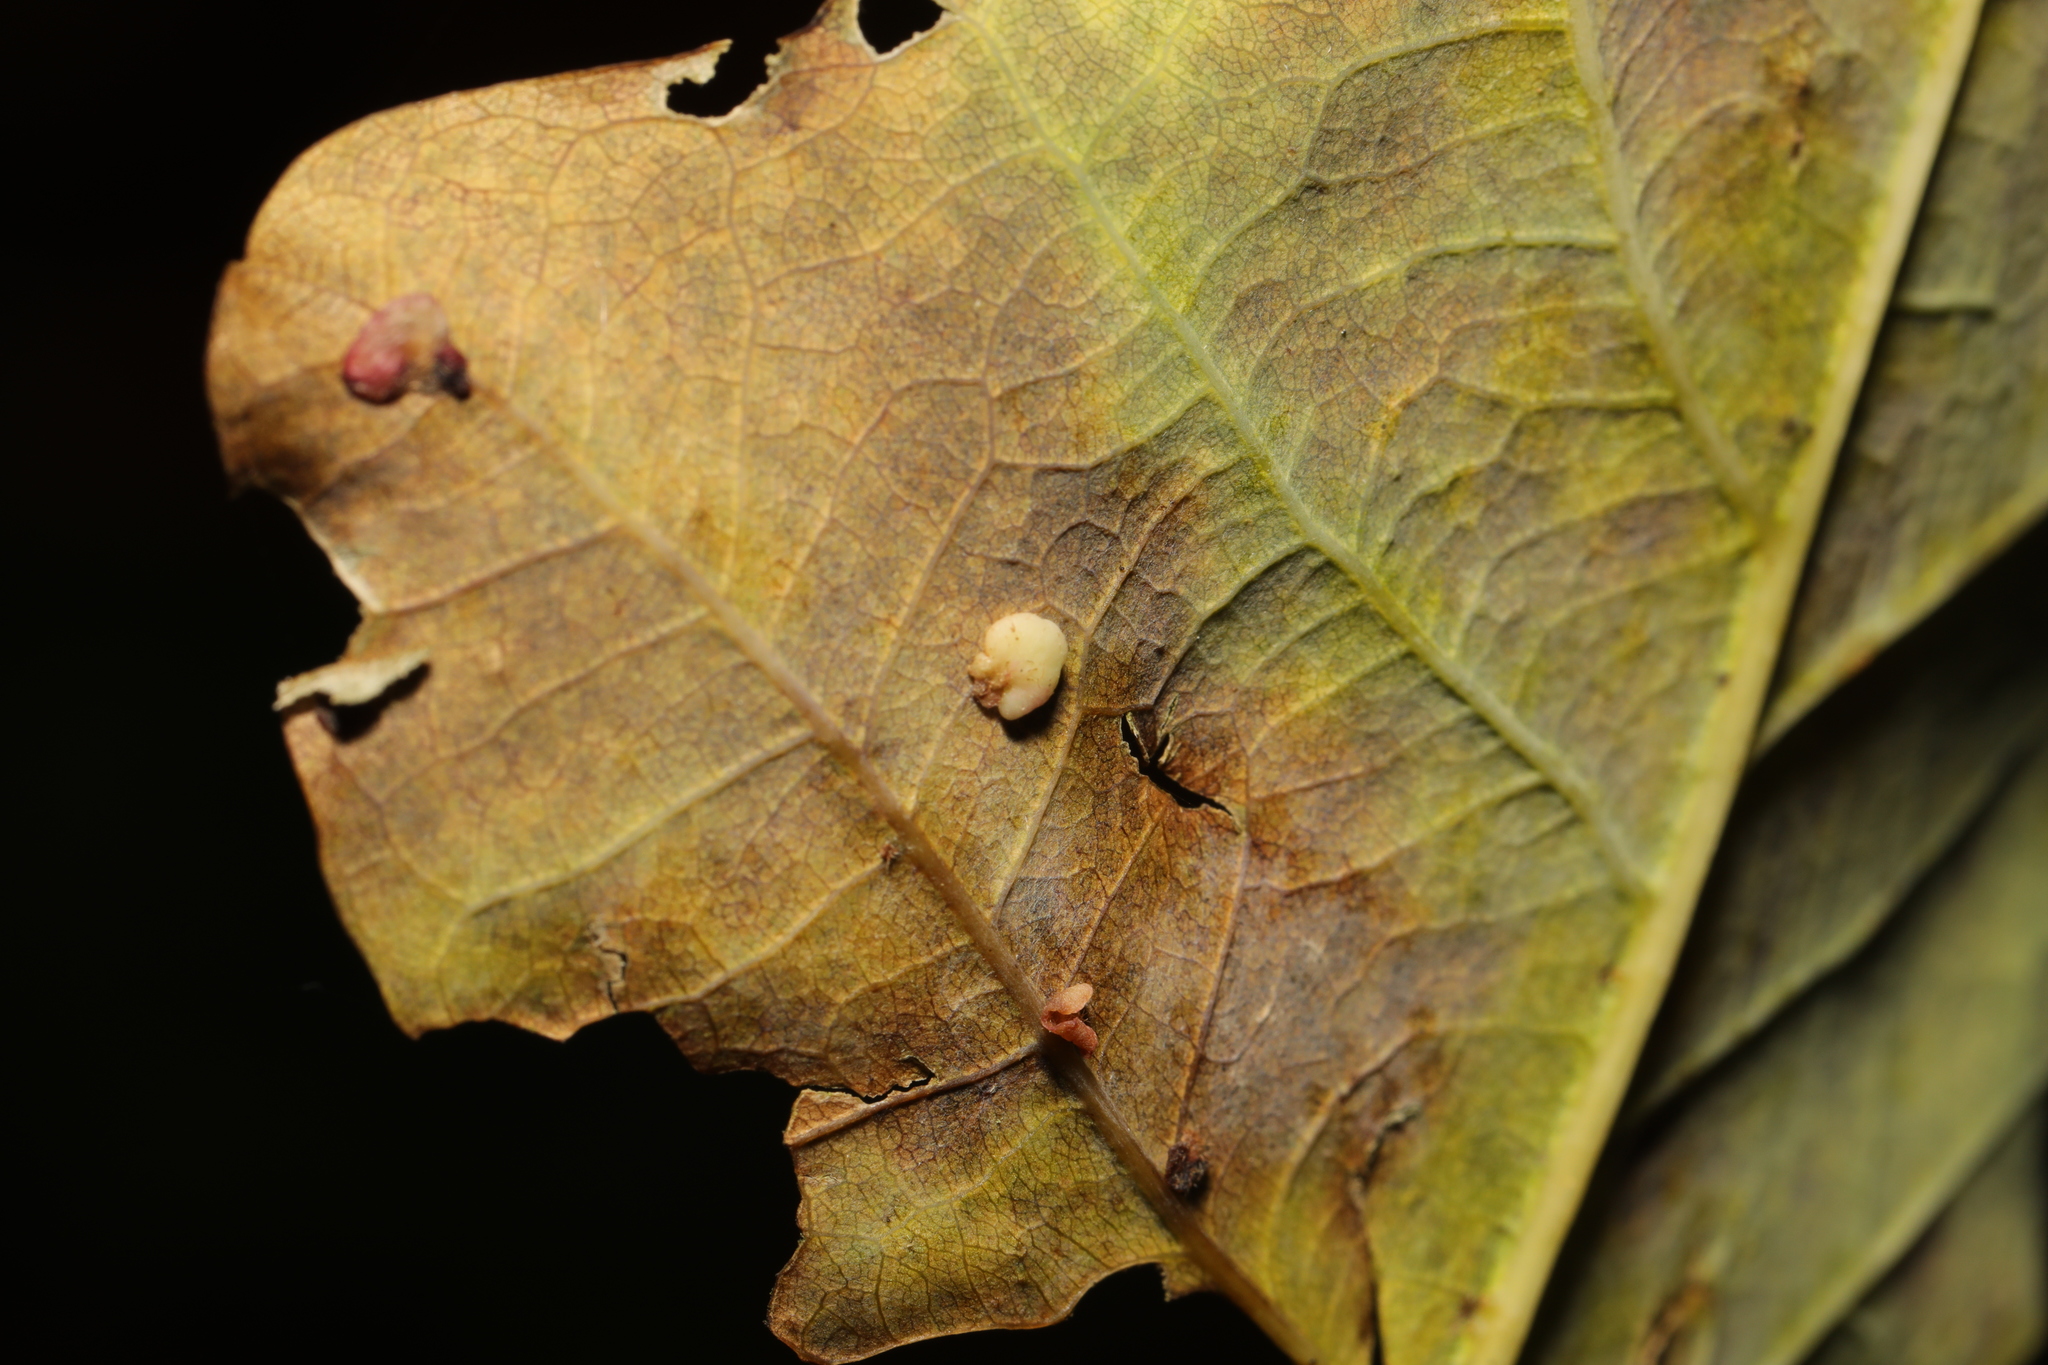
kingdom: Animalia
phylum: Arthropoda
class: Insecta
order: Hymenoptera
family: Cynipidae
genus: Neuroterus
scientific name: Neuroterus quercusbaccarum
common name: Common spangle gall
